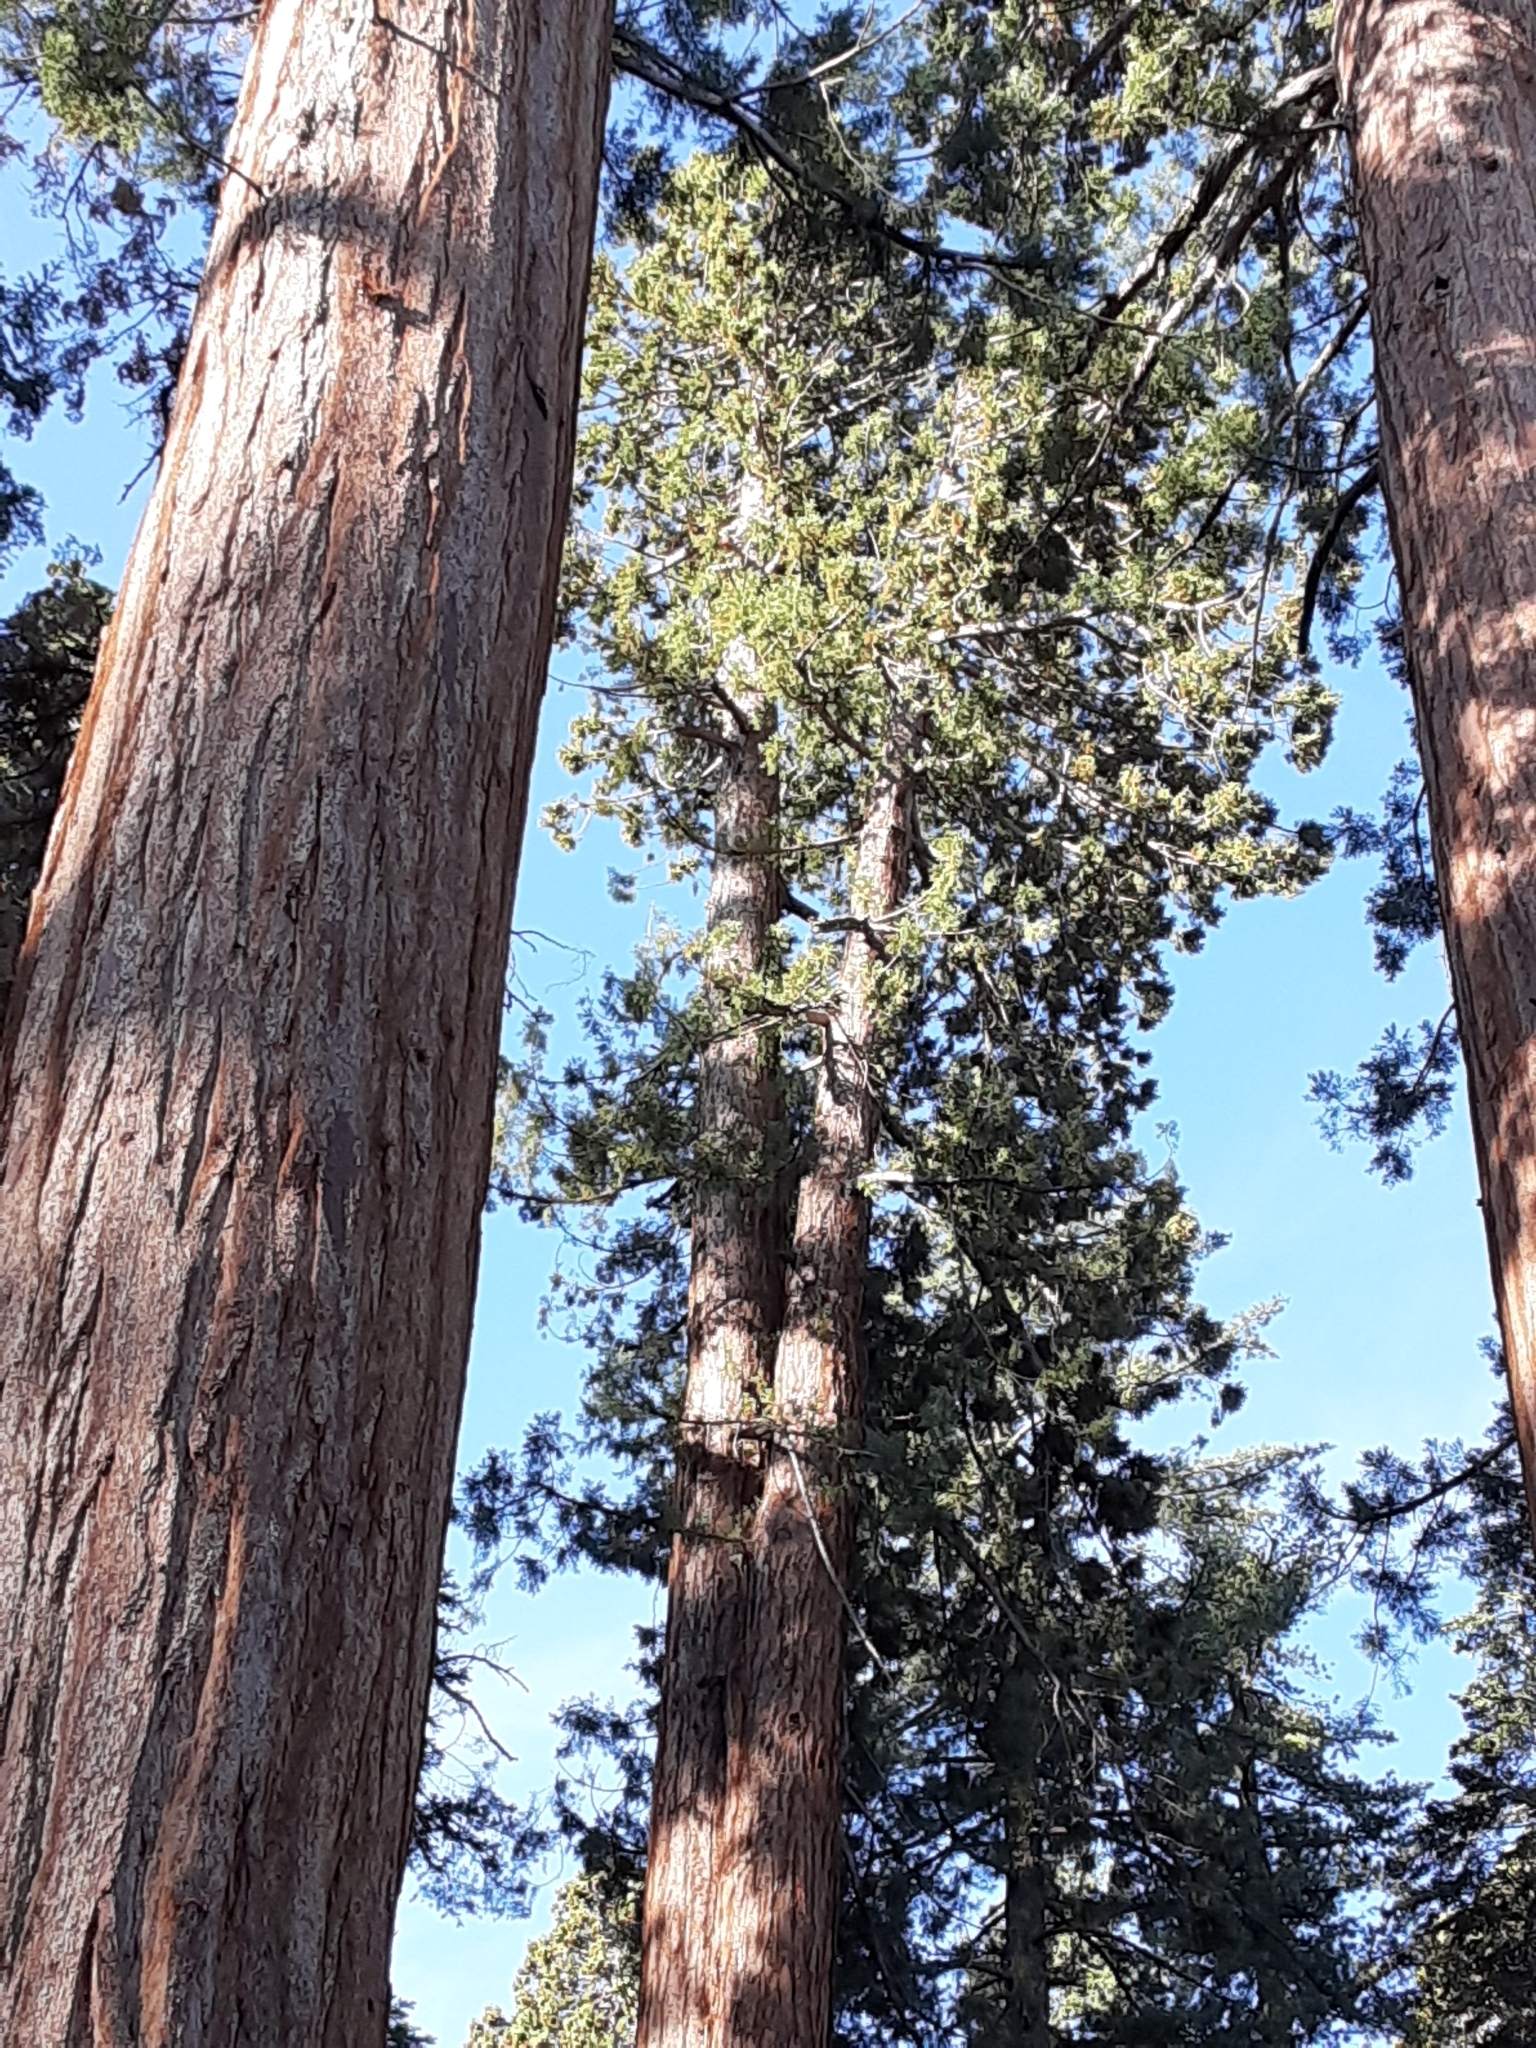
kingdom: Plantae
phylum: Tracheophyta
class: Pinopsida
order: Pinales
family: Cupressaceae
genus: Sequoiadendron
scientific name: Sequoiadendron giganteum
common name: Wellingtonia
